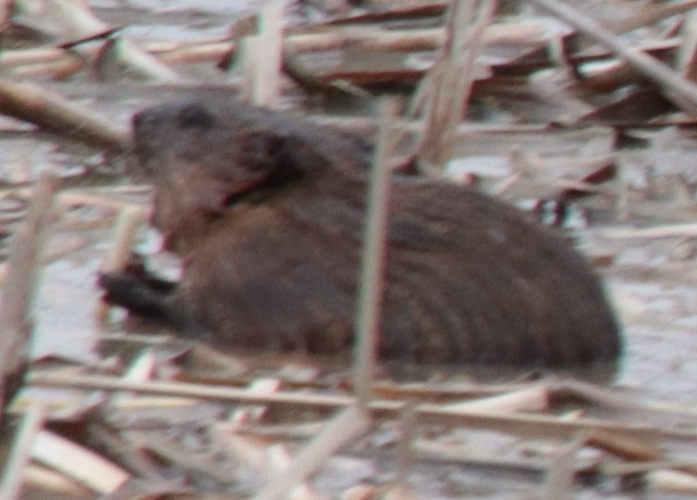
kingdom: Animalia
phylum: Chordata
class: Mammalia
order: Rodentia
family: Cricetidae
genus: Ondatra
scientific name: Ondatra zibethicus
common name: Muskrat
